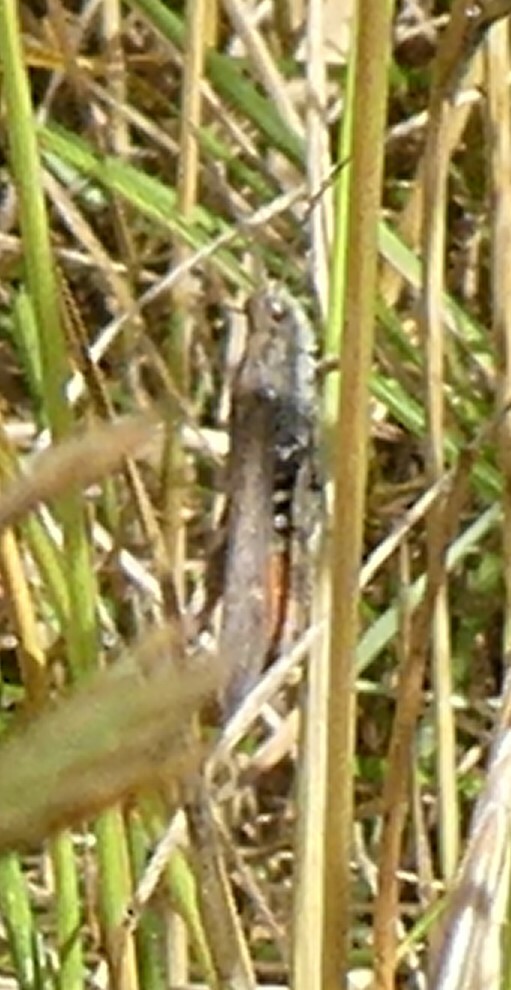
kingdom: Animalia
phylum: Arthropoda
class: Insecta
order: Orthoptera
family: Acrididae
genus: Chorthippus
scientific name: Chorthippus brunneus
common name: Field grasshopper
